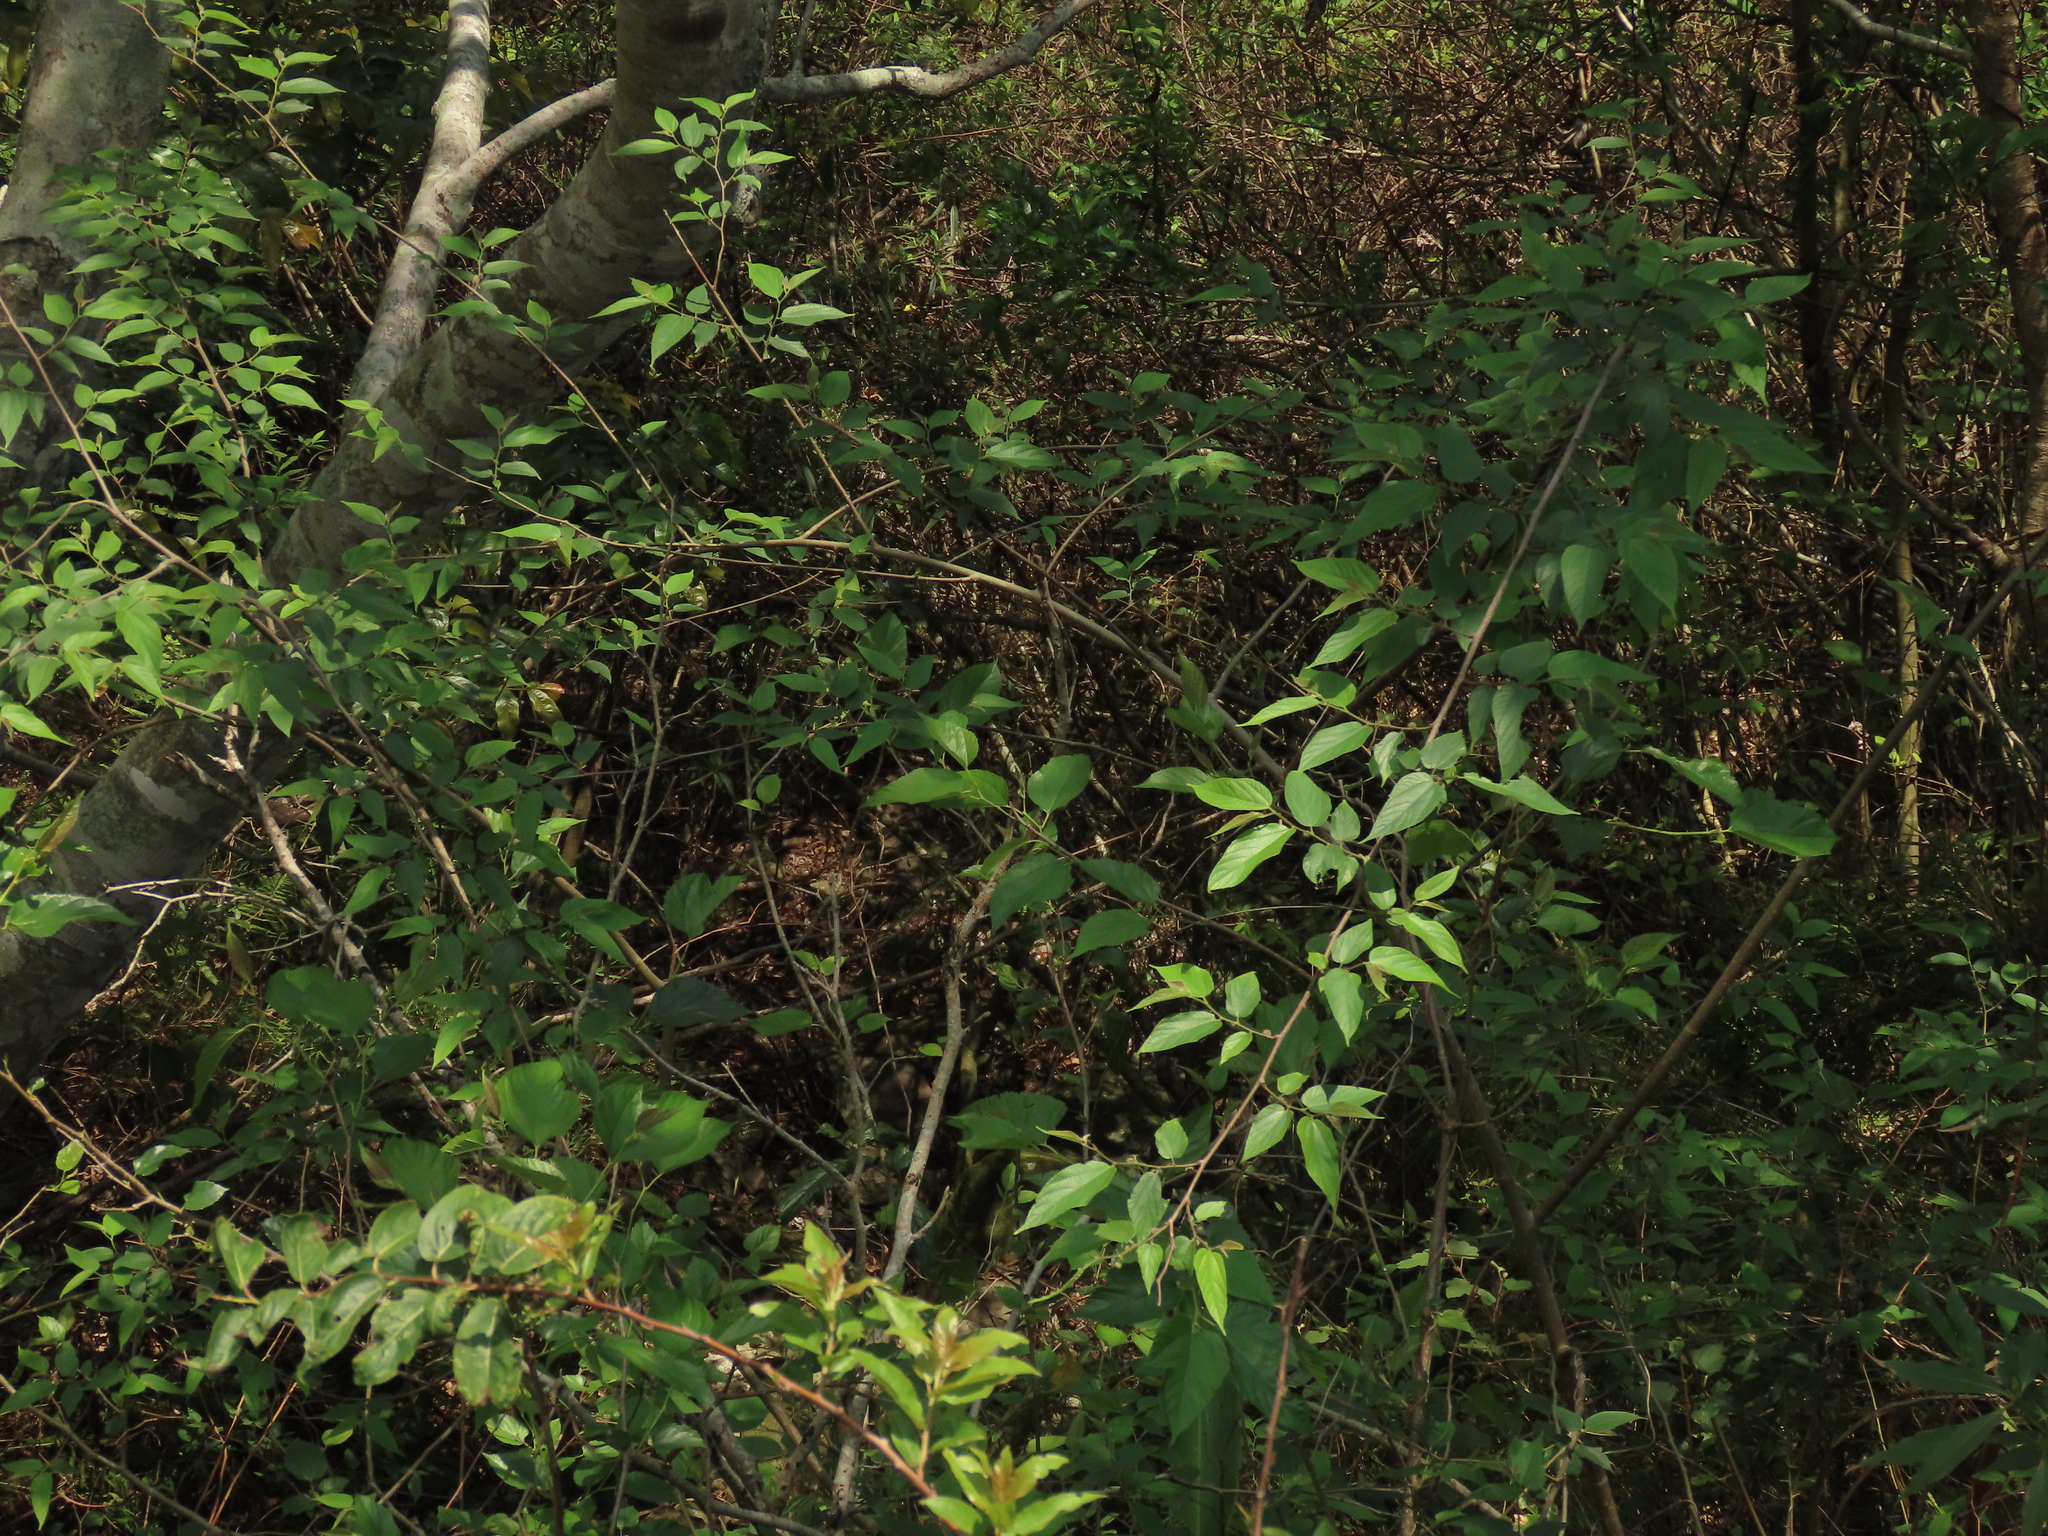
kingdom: Plantae
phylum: Tracheophyta
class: Magnoliopsida
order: Rosales
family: Moraceae
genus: Broussonetia
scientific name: Broussonetia monoica
